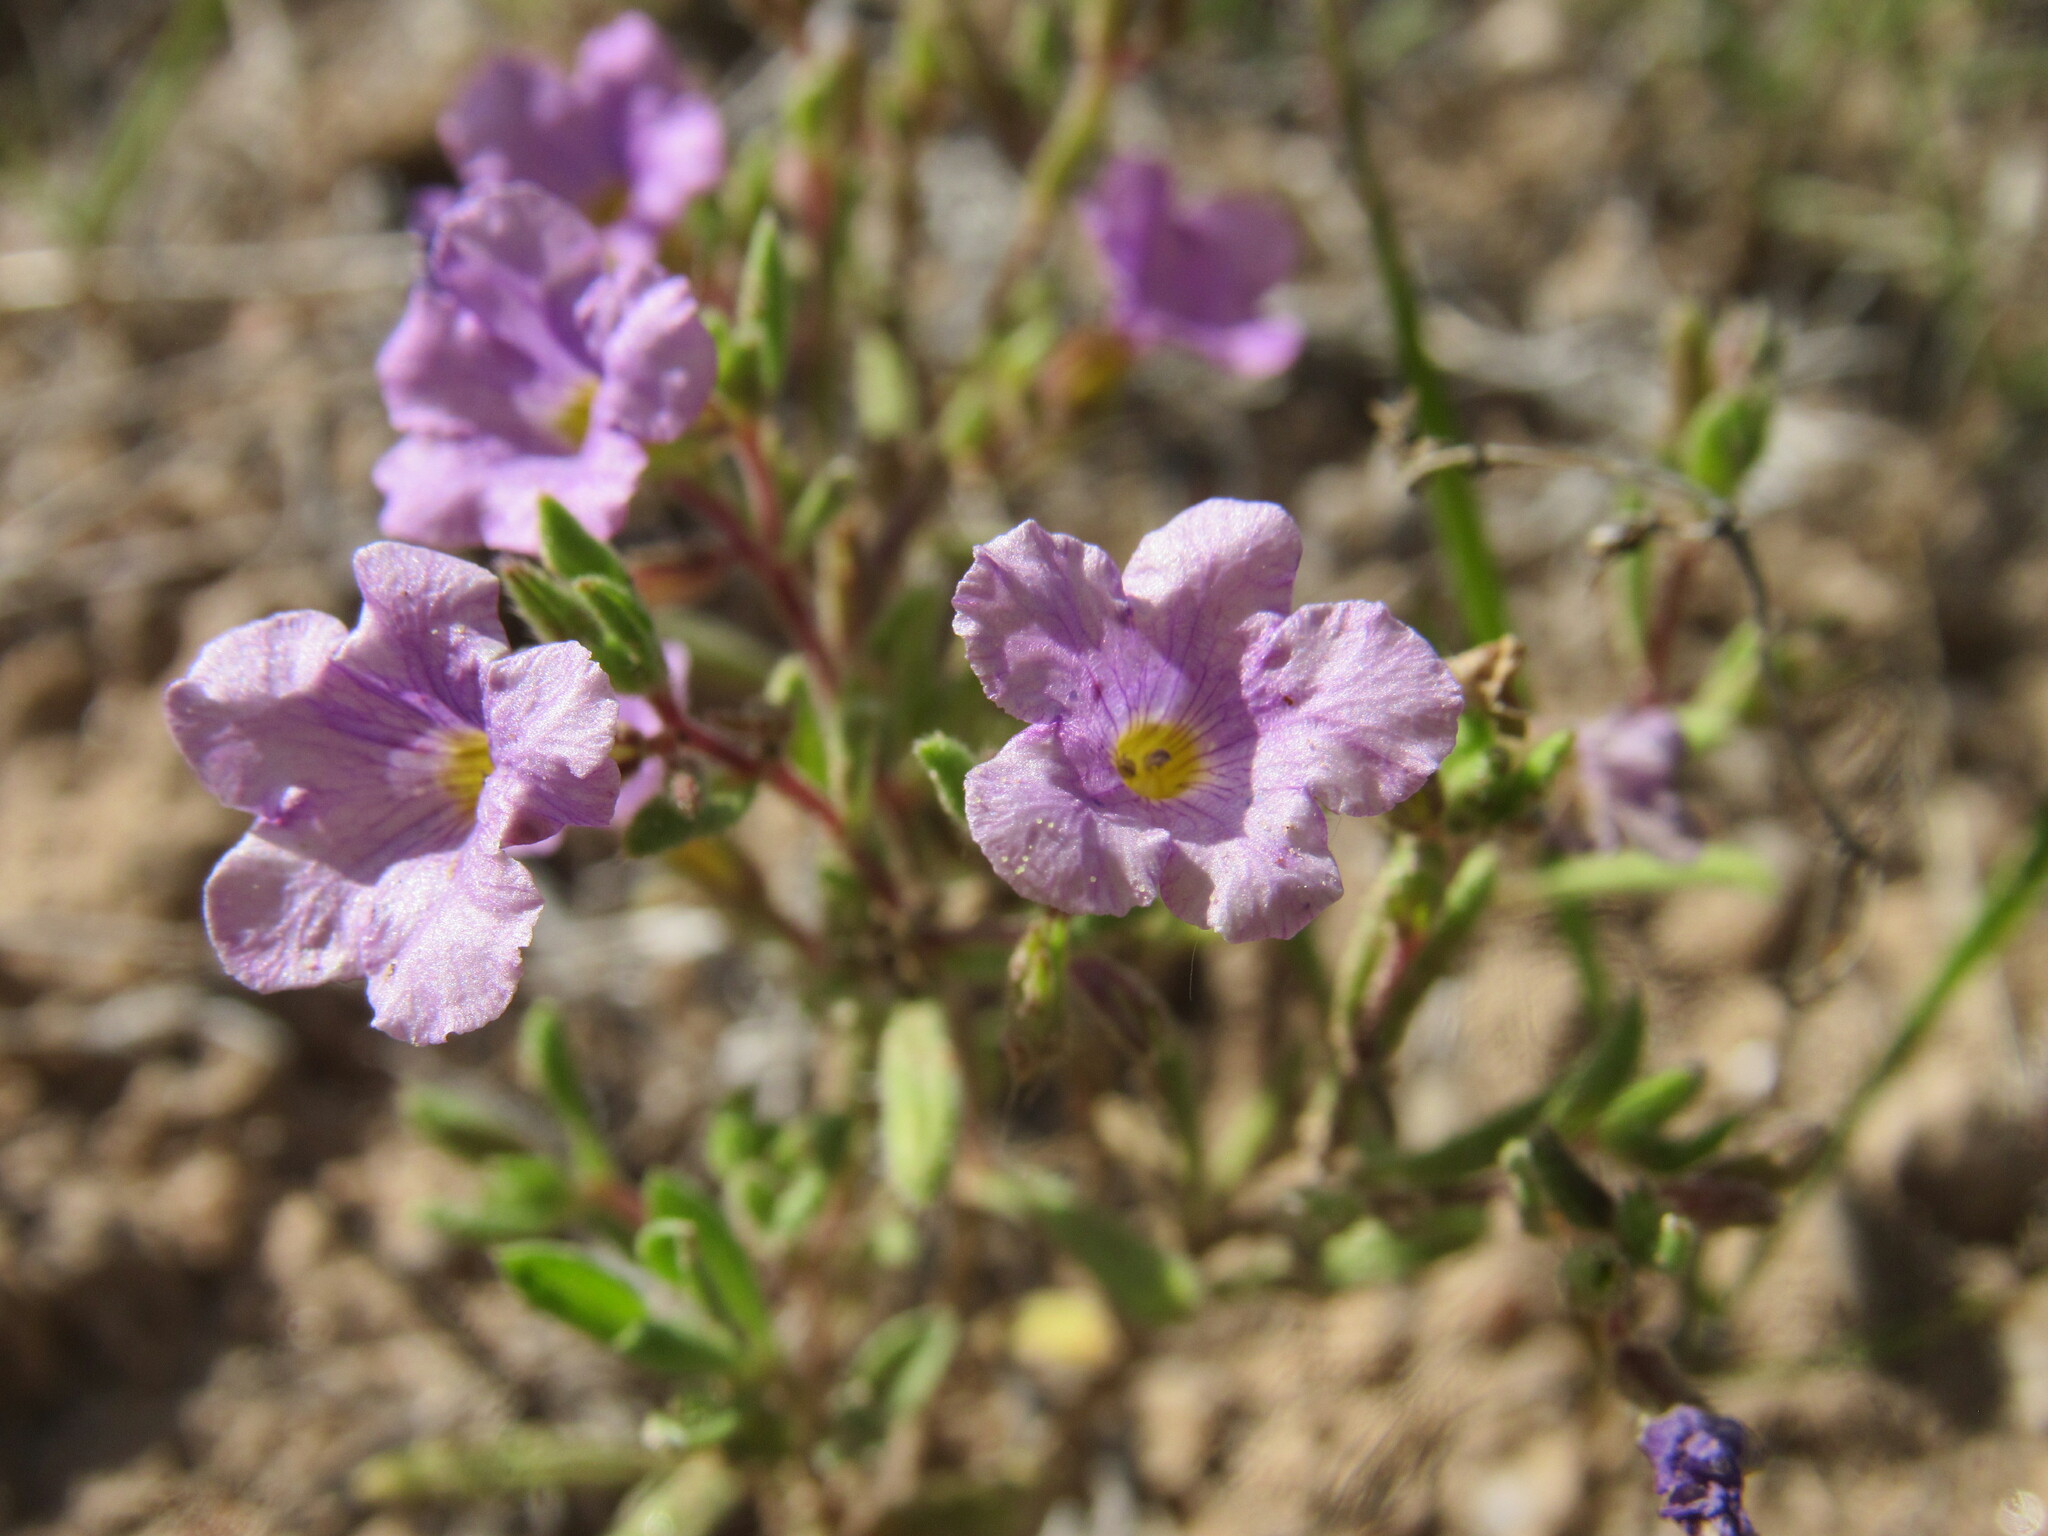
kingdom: Plantae
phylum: Tracheophyta
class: Magnoliopsida
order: Boraginales
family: Namaceae
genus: Nama
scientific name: Nama hispida
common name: Bristly nama
